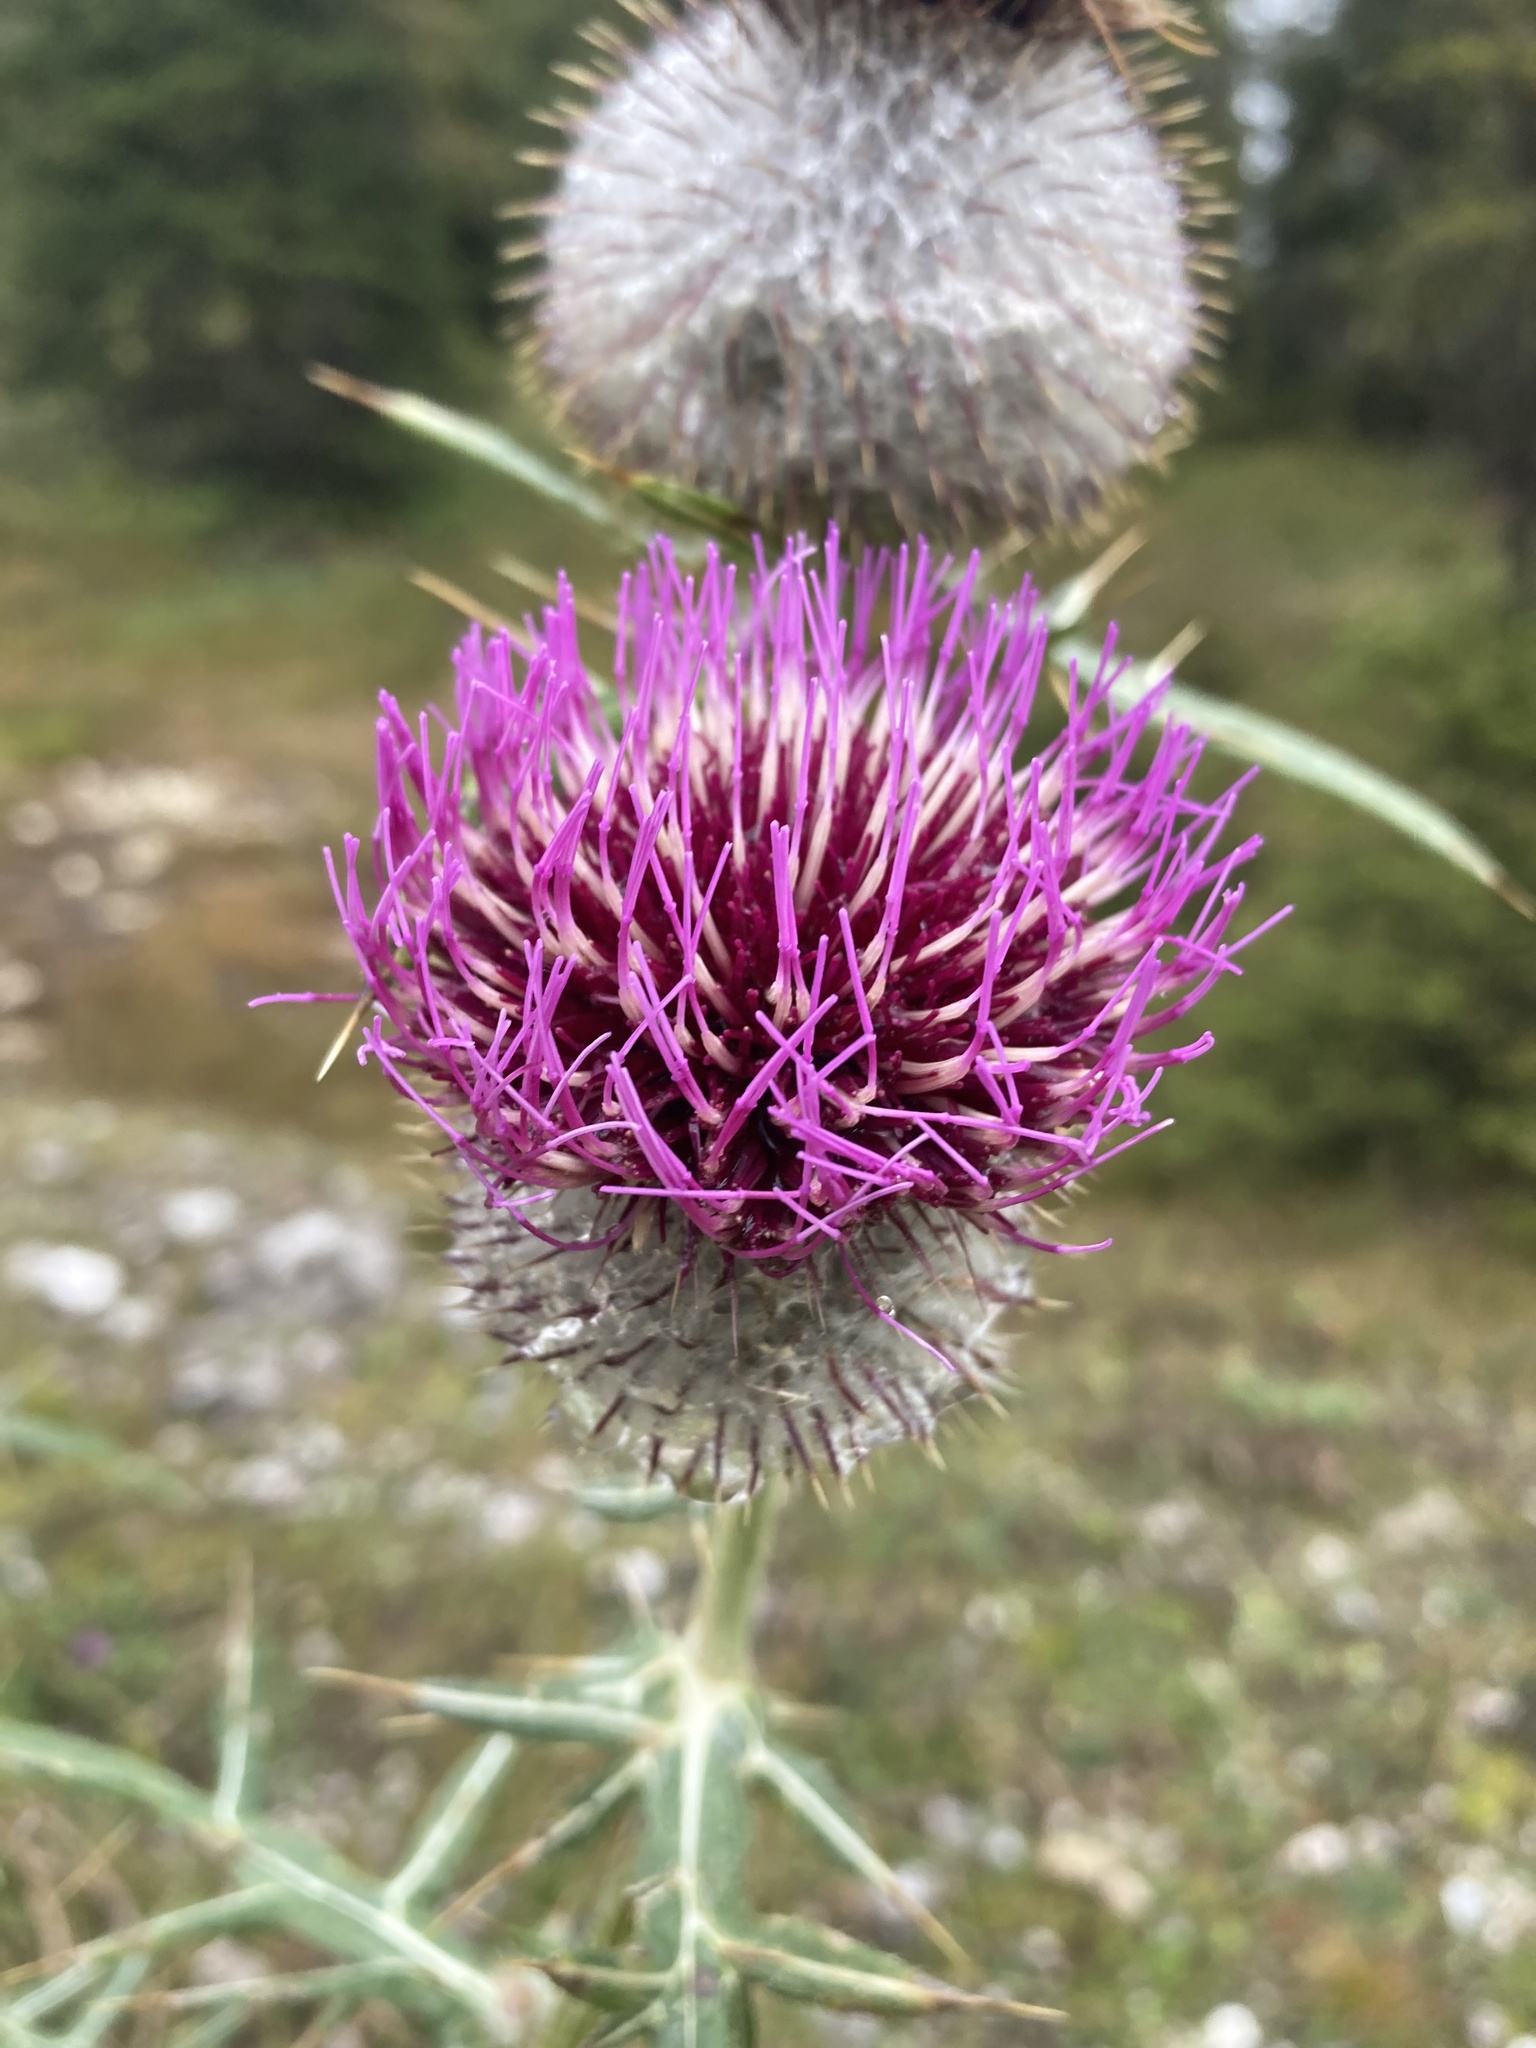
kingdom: Plantae
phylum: Tracheophyta
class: Magnoliopsida
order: Asterales
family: Asteraceae
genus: Lophiolepis
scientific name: Lophiolepis eriophora
